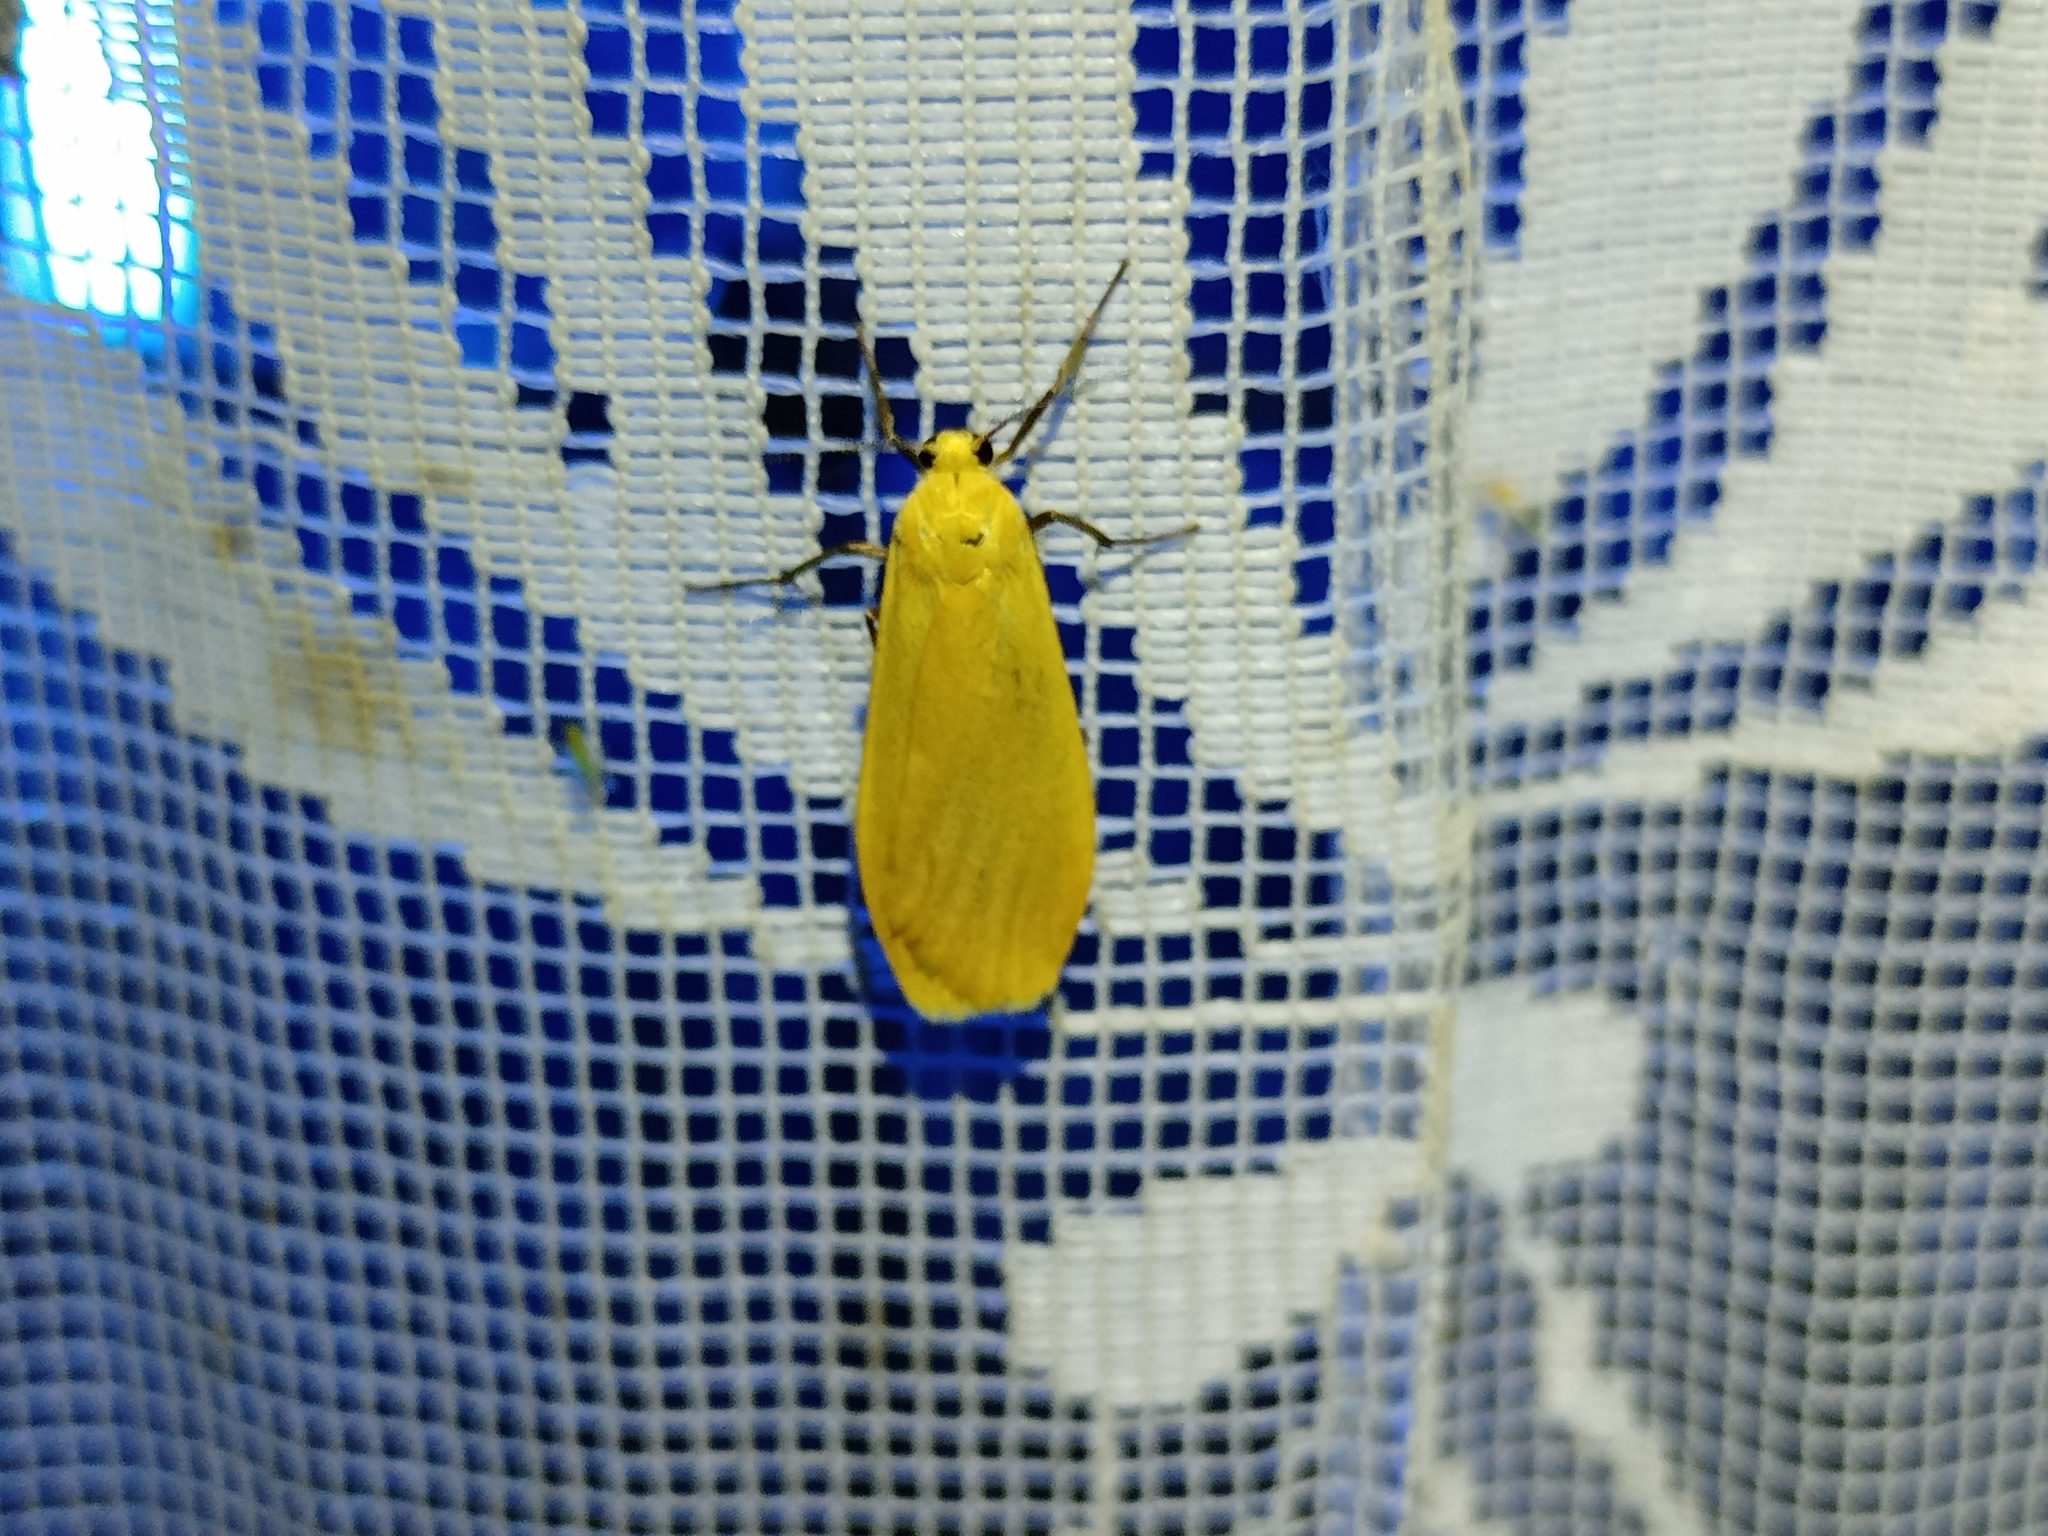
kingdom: Animalia
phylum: Arthropoda
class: Insecta
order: Lepidoptera
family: Erebidae
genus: Wittia
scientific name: Wittia sororcula
